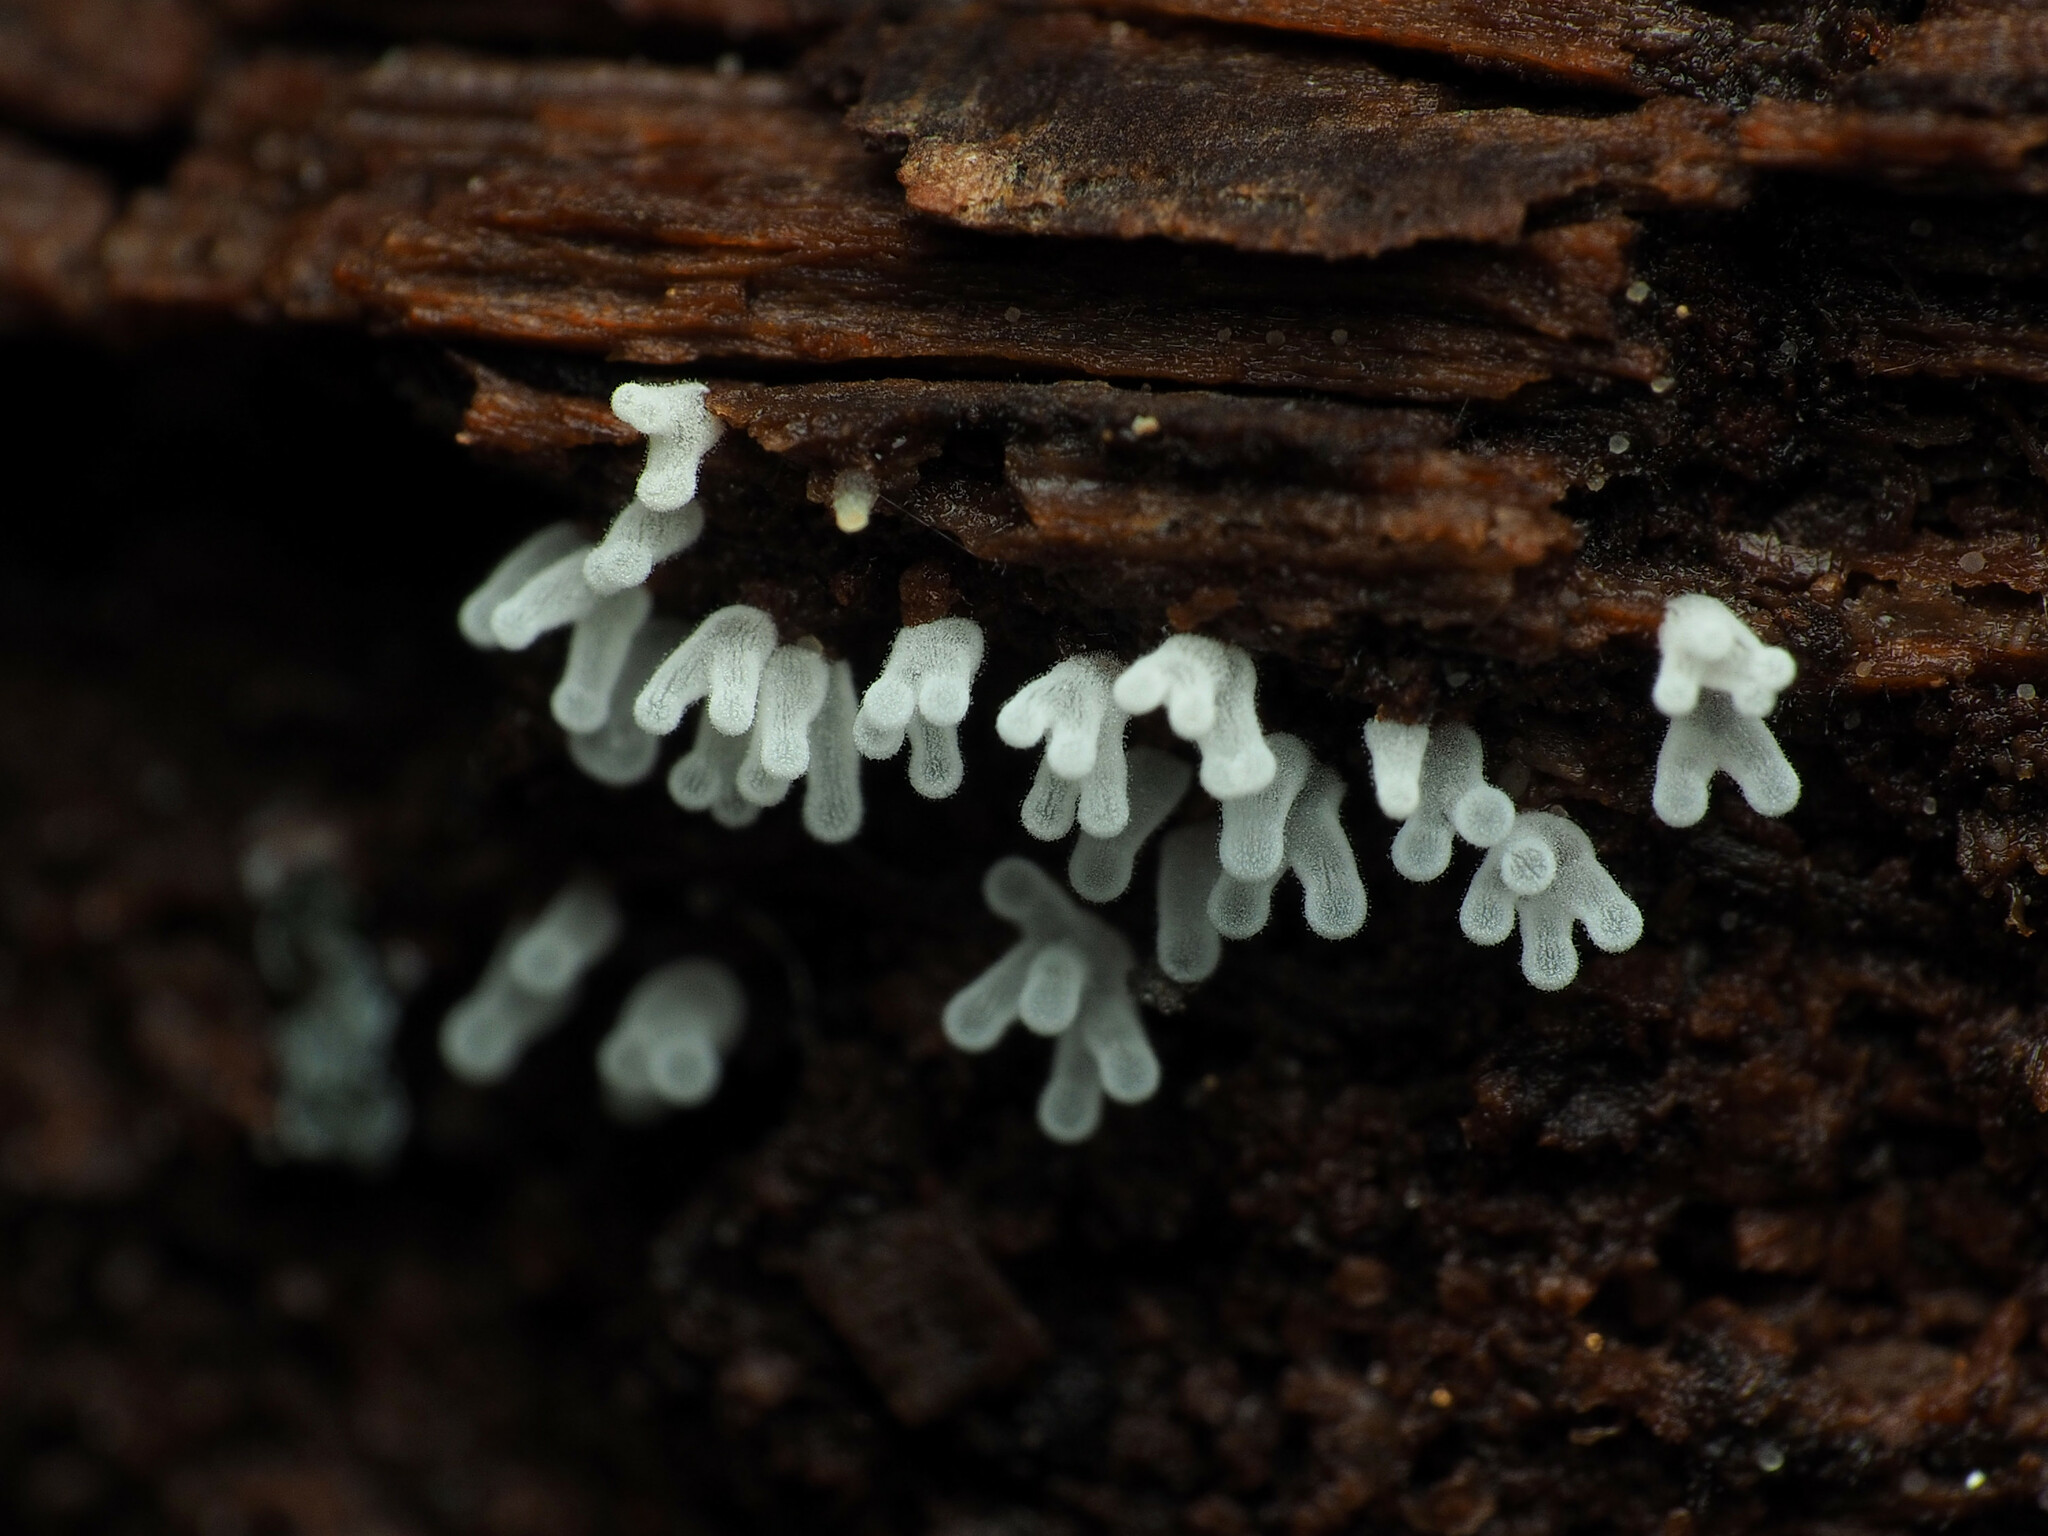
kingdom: Protozoa
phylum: Mycetozoa
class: Protosteliomycetes
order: Ceratiomyxales
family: Ceratiomyxaceae
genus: Ceratiomyxa
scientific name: Ceratiomyxa fruticulosa
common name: Honeycomb coral slime mold
